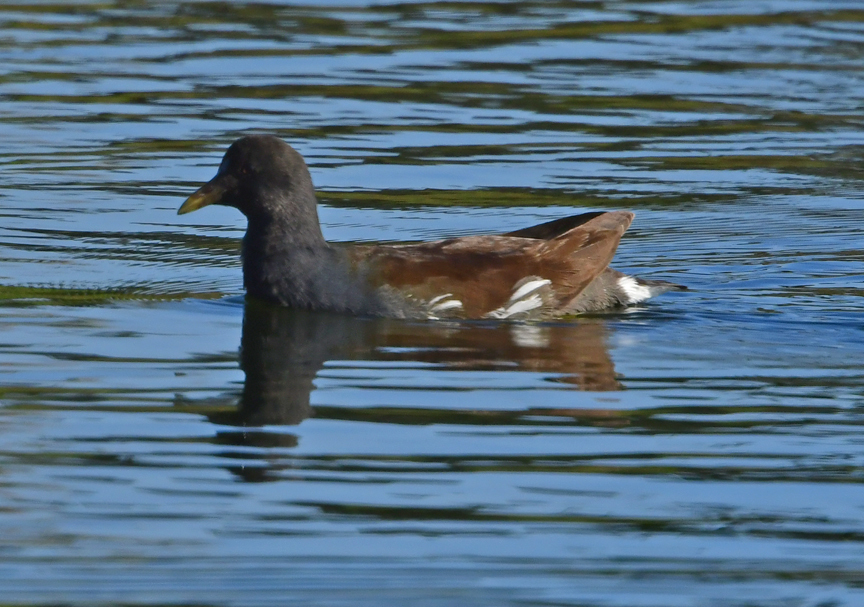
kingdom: Animalia
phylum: Chordata
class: Aves
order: Gruiformes
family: Rallidae
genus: Gallinula
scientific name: Gallinula chloropus
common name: Common moorhen
